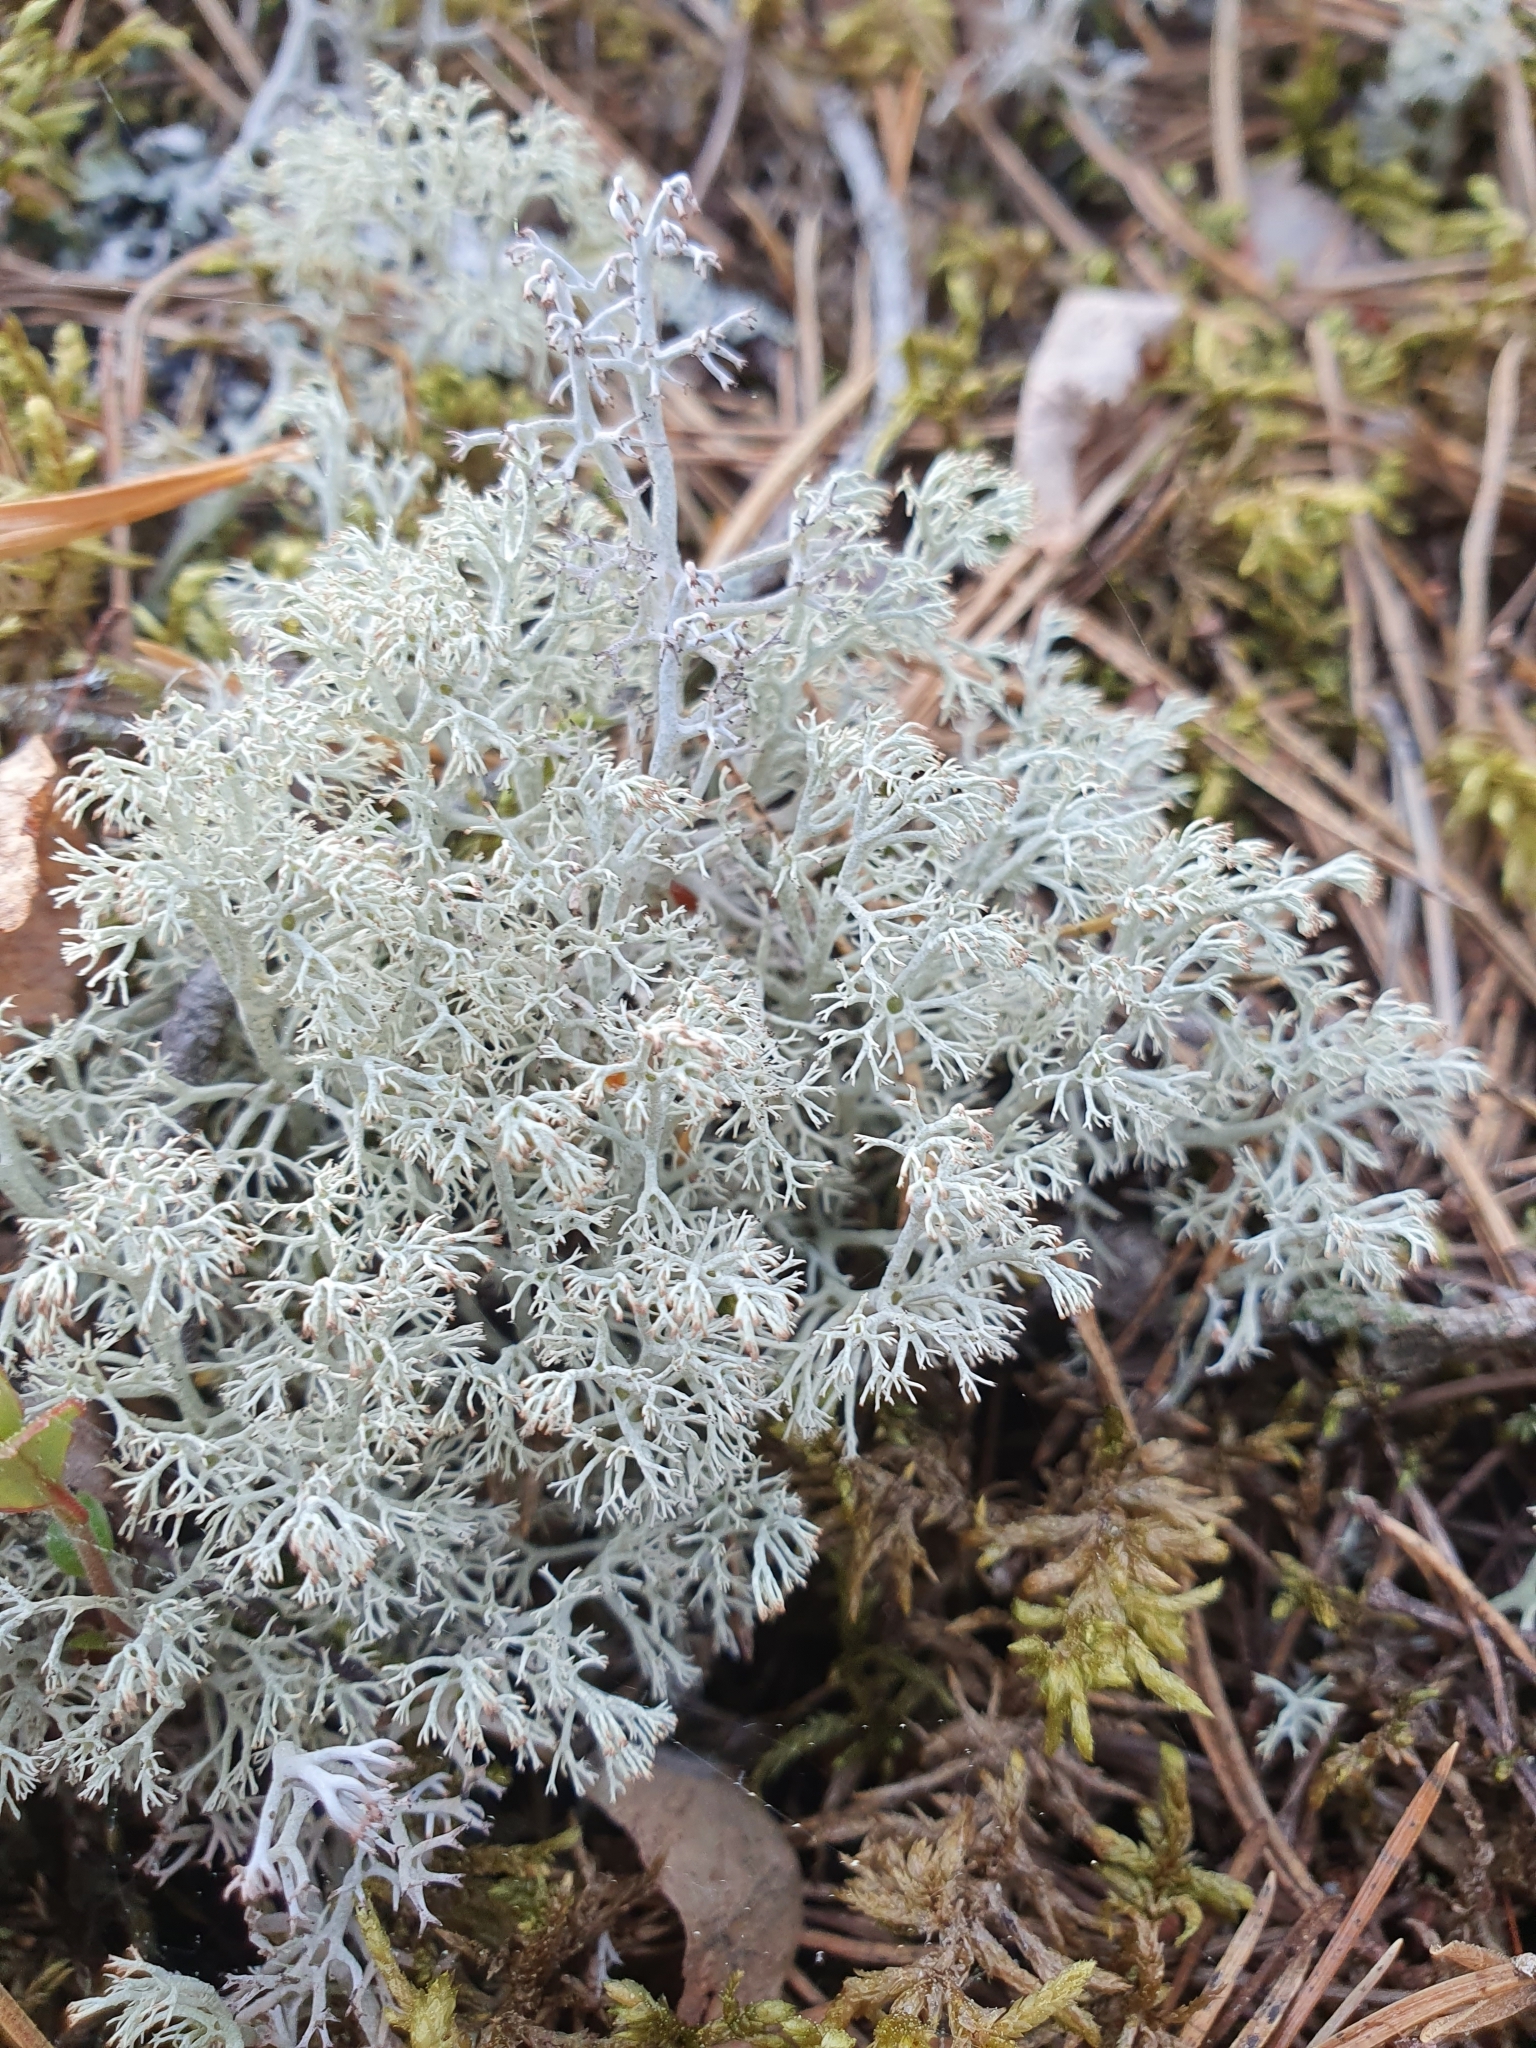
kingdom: Fungi
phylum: Ascomycota
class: Lecanoromycetes
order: Lecanorales
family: Cladoniaceae
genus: Cladonia
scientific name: Cladonia arbuscula
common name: Reindeer lichen
